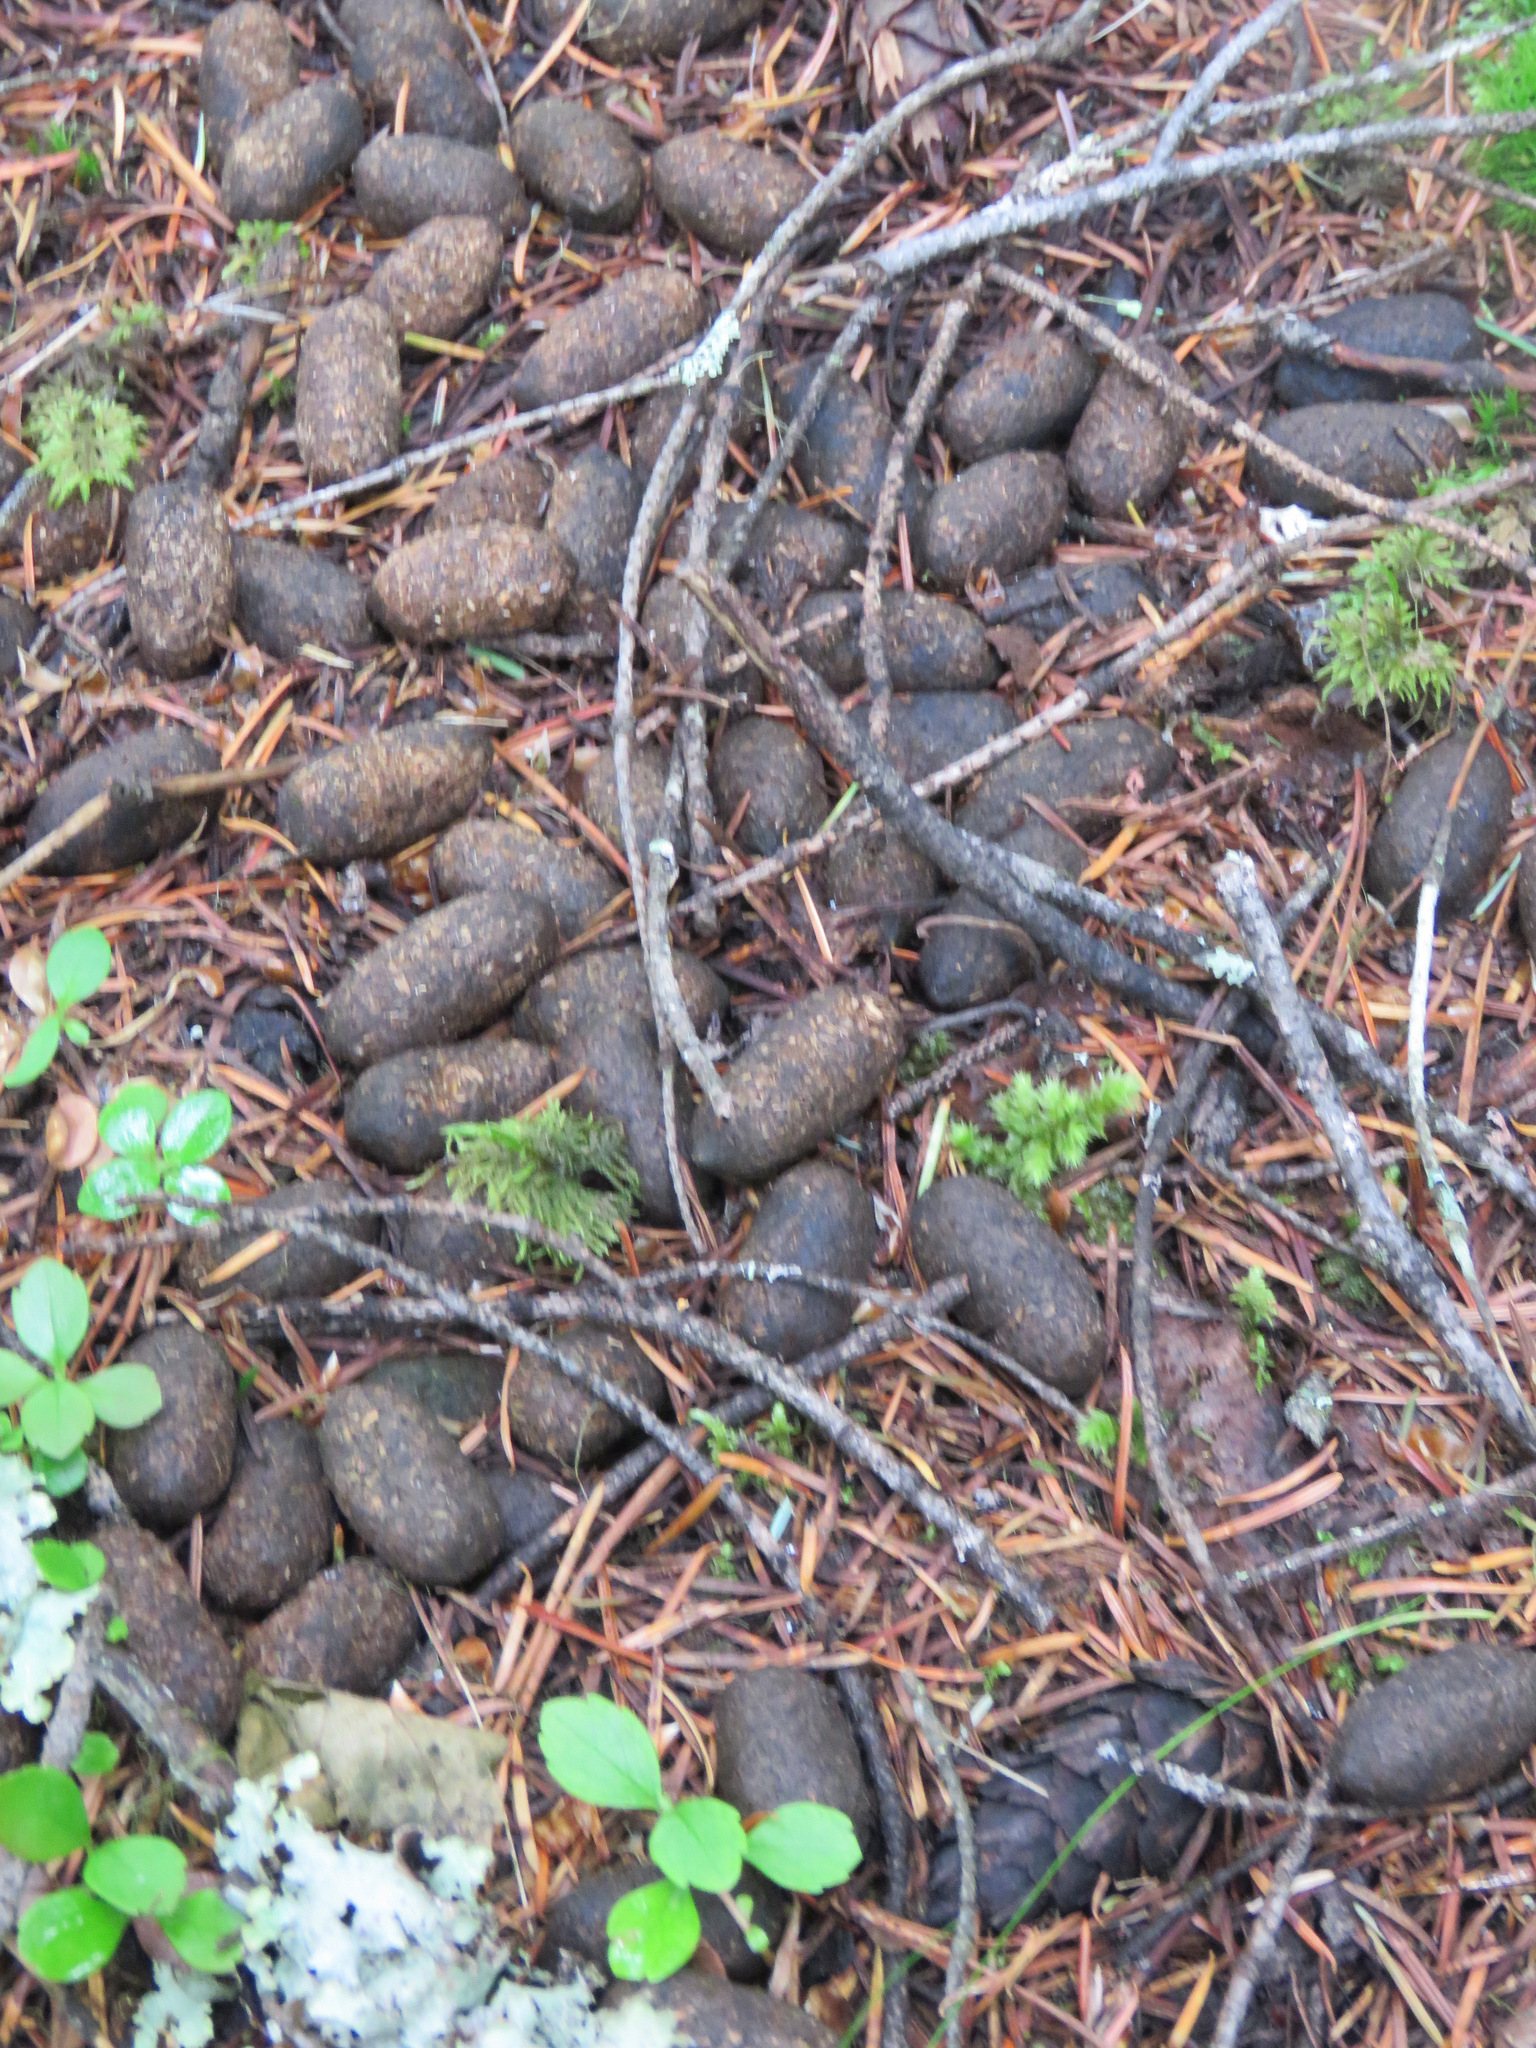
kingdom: Animalia
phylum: Chordata
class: Mammalia
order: Artiodactyla
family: Cervidae
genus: Alces
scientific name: Alces alces
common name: Moose
